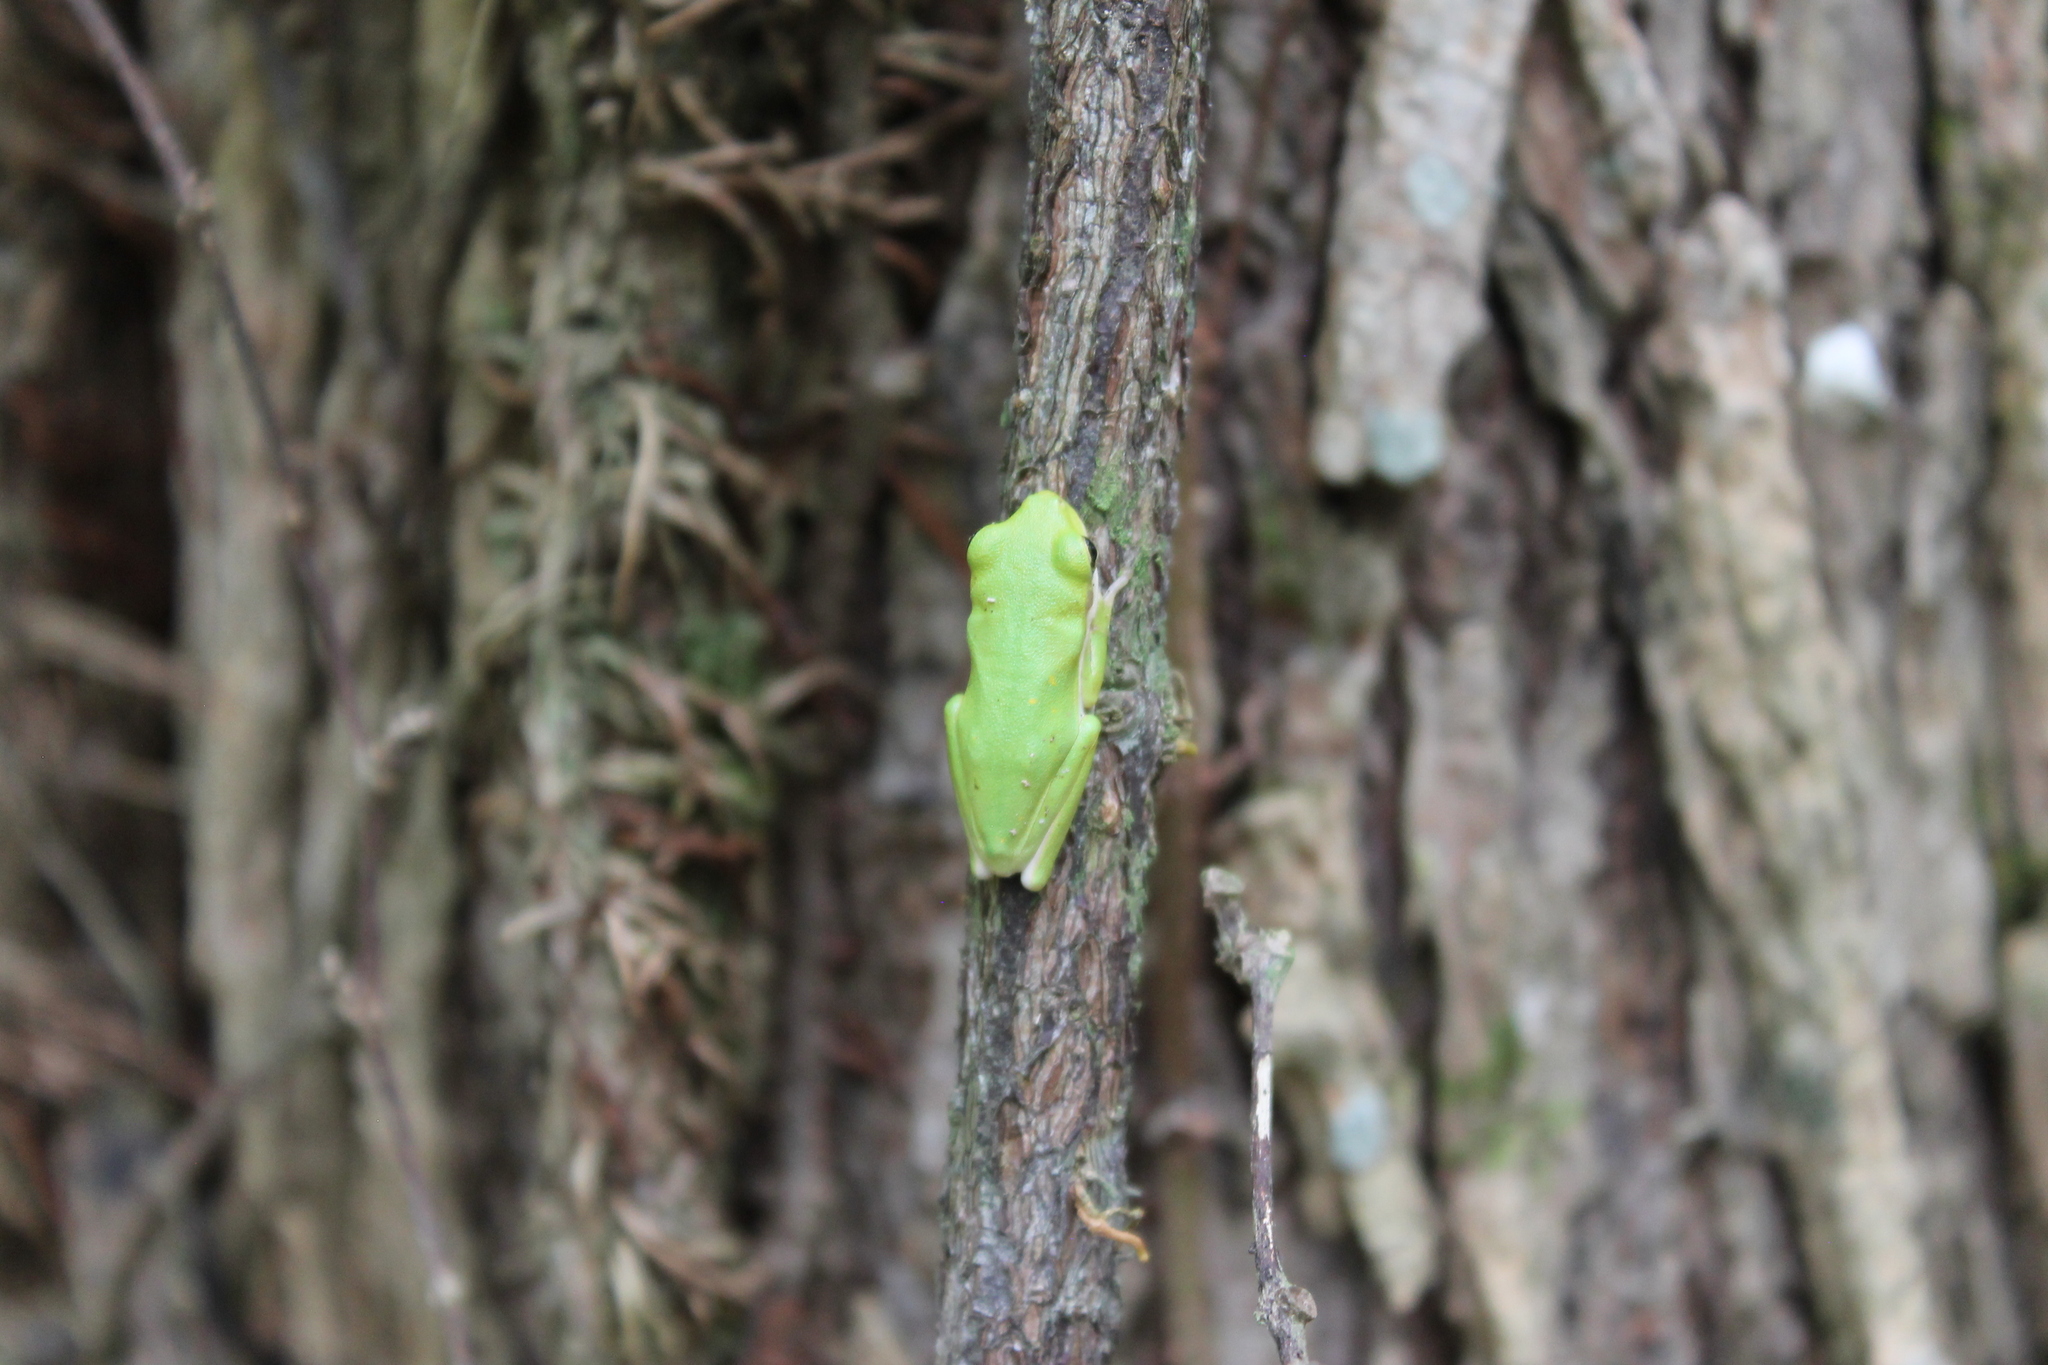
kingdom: Animalia
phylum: Chordata
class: Amphibia
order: Anura
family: Hylidae
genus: Dryophytes
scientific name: Dryophytes cinereus
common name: Green treefrog
